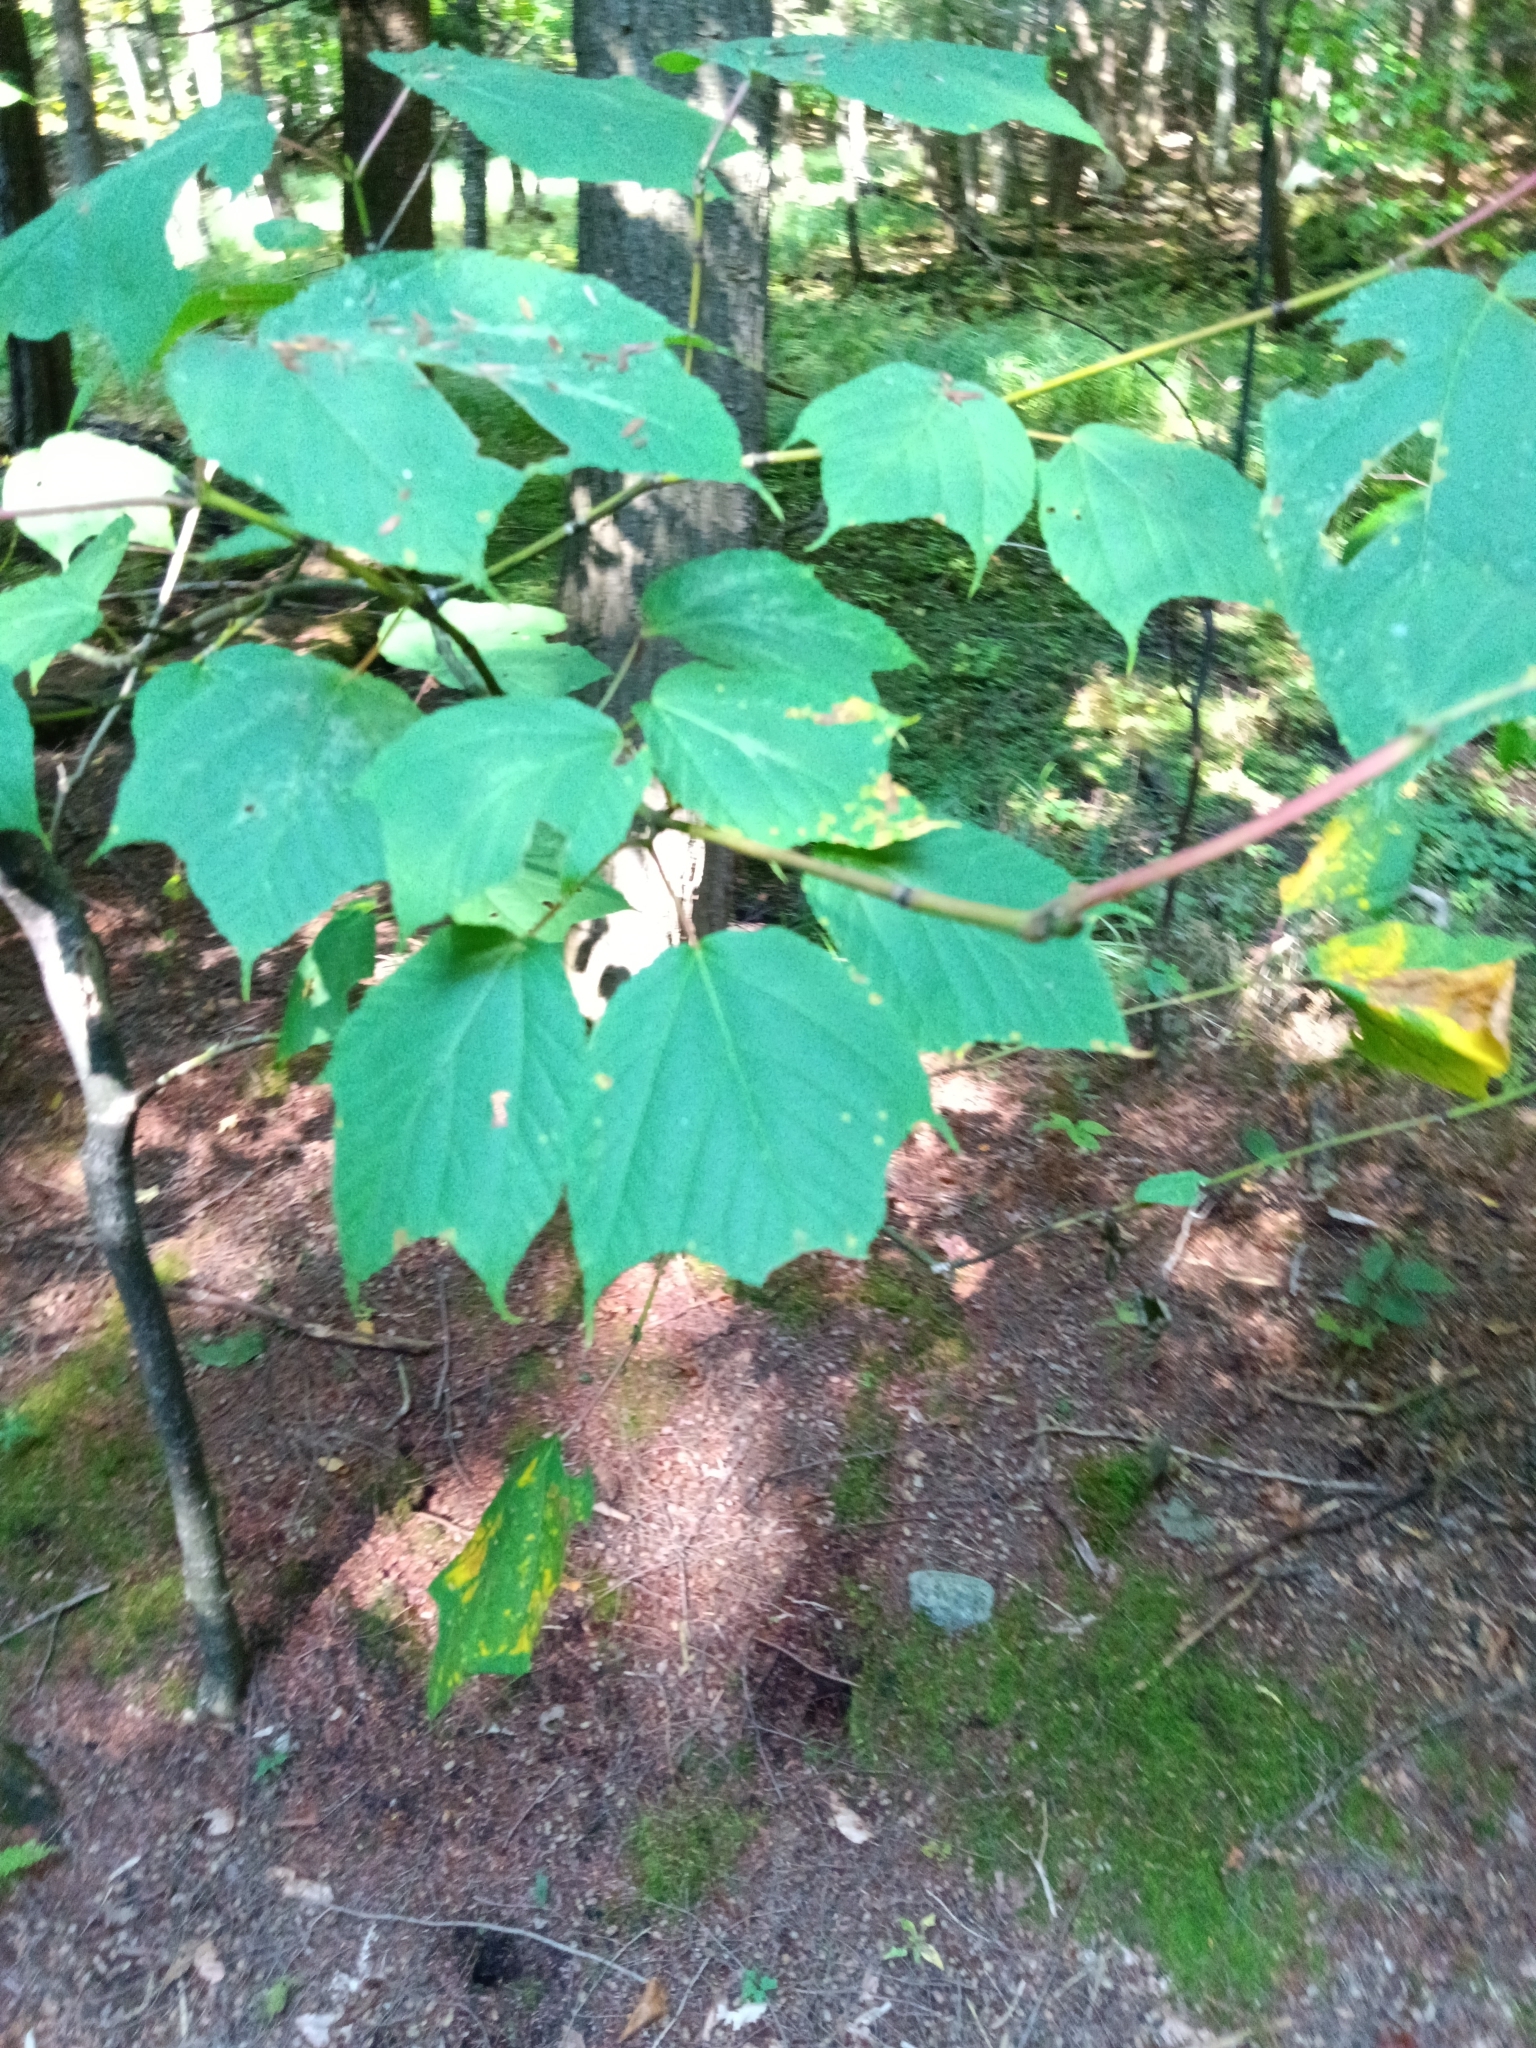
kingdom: Plantae
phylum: Tracheophyta
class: Magnoliopsida
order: Sapindales
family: Sapindaceae
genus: Acer
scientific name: Acer pensylvanicum
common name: Moosewood
